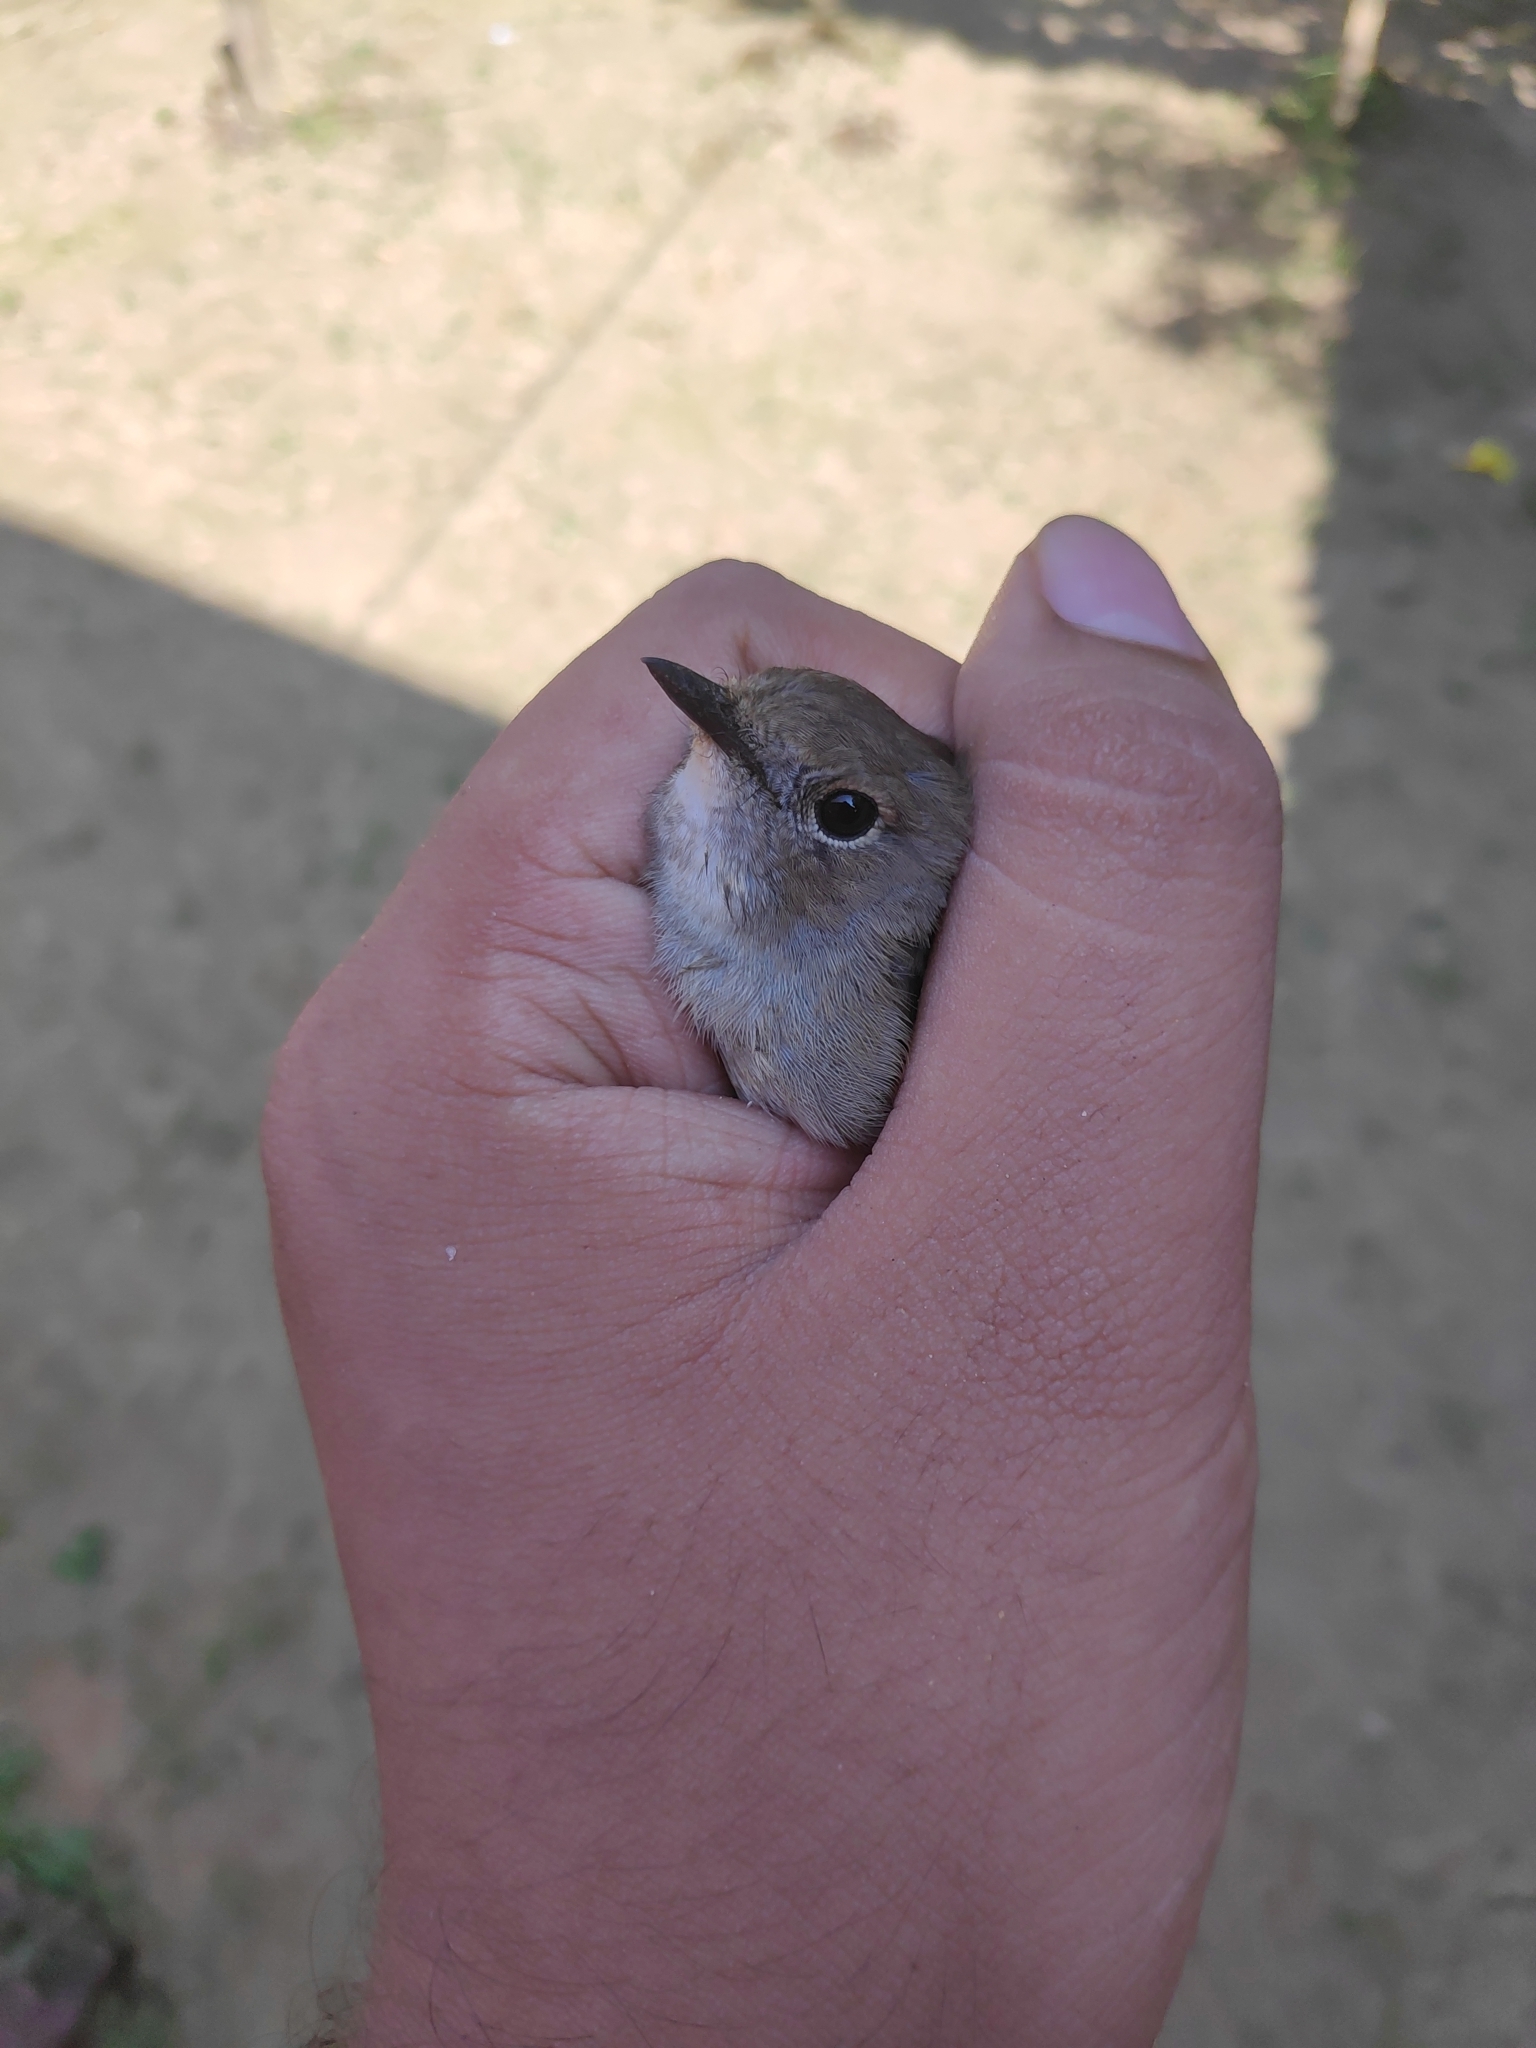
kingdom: Animalia
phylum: Chordata
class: Aves
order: Passeriformes
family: Muscicapidae
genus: Ficedula
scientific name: Ficedula albicilla
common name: Taiga flycatcher
